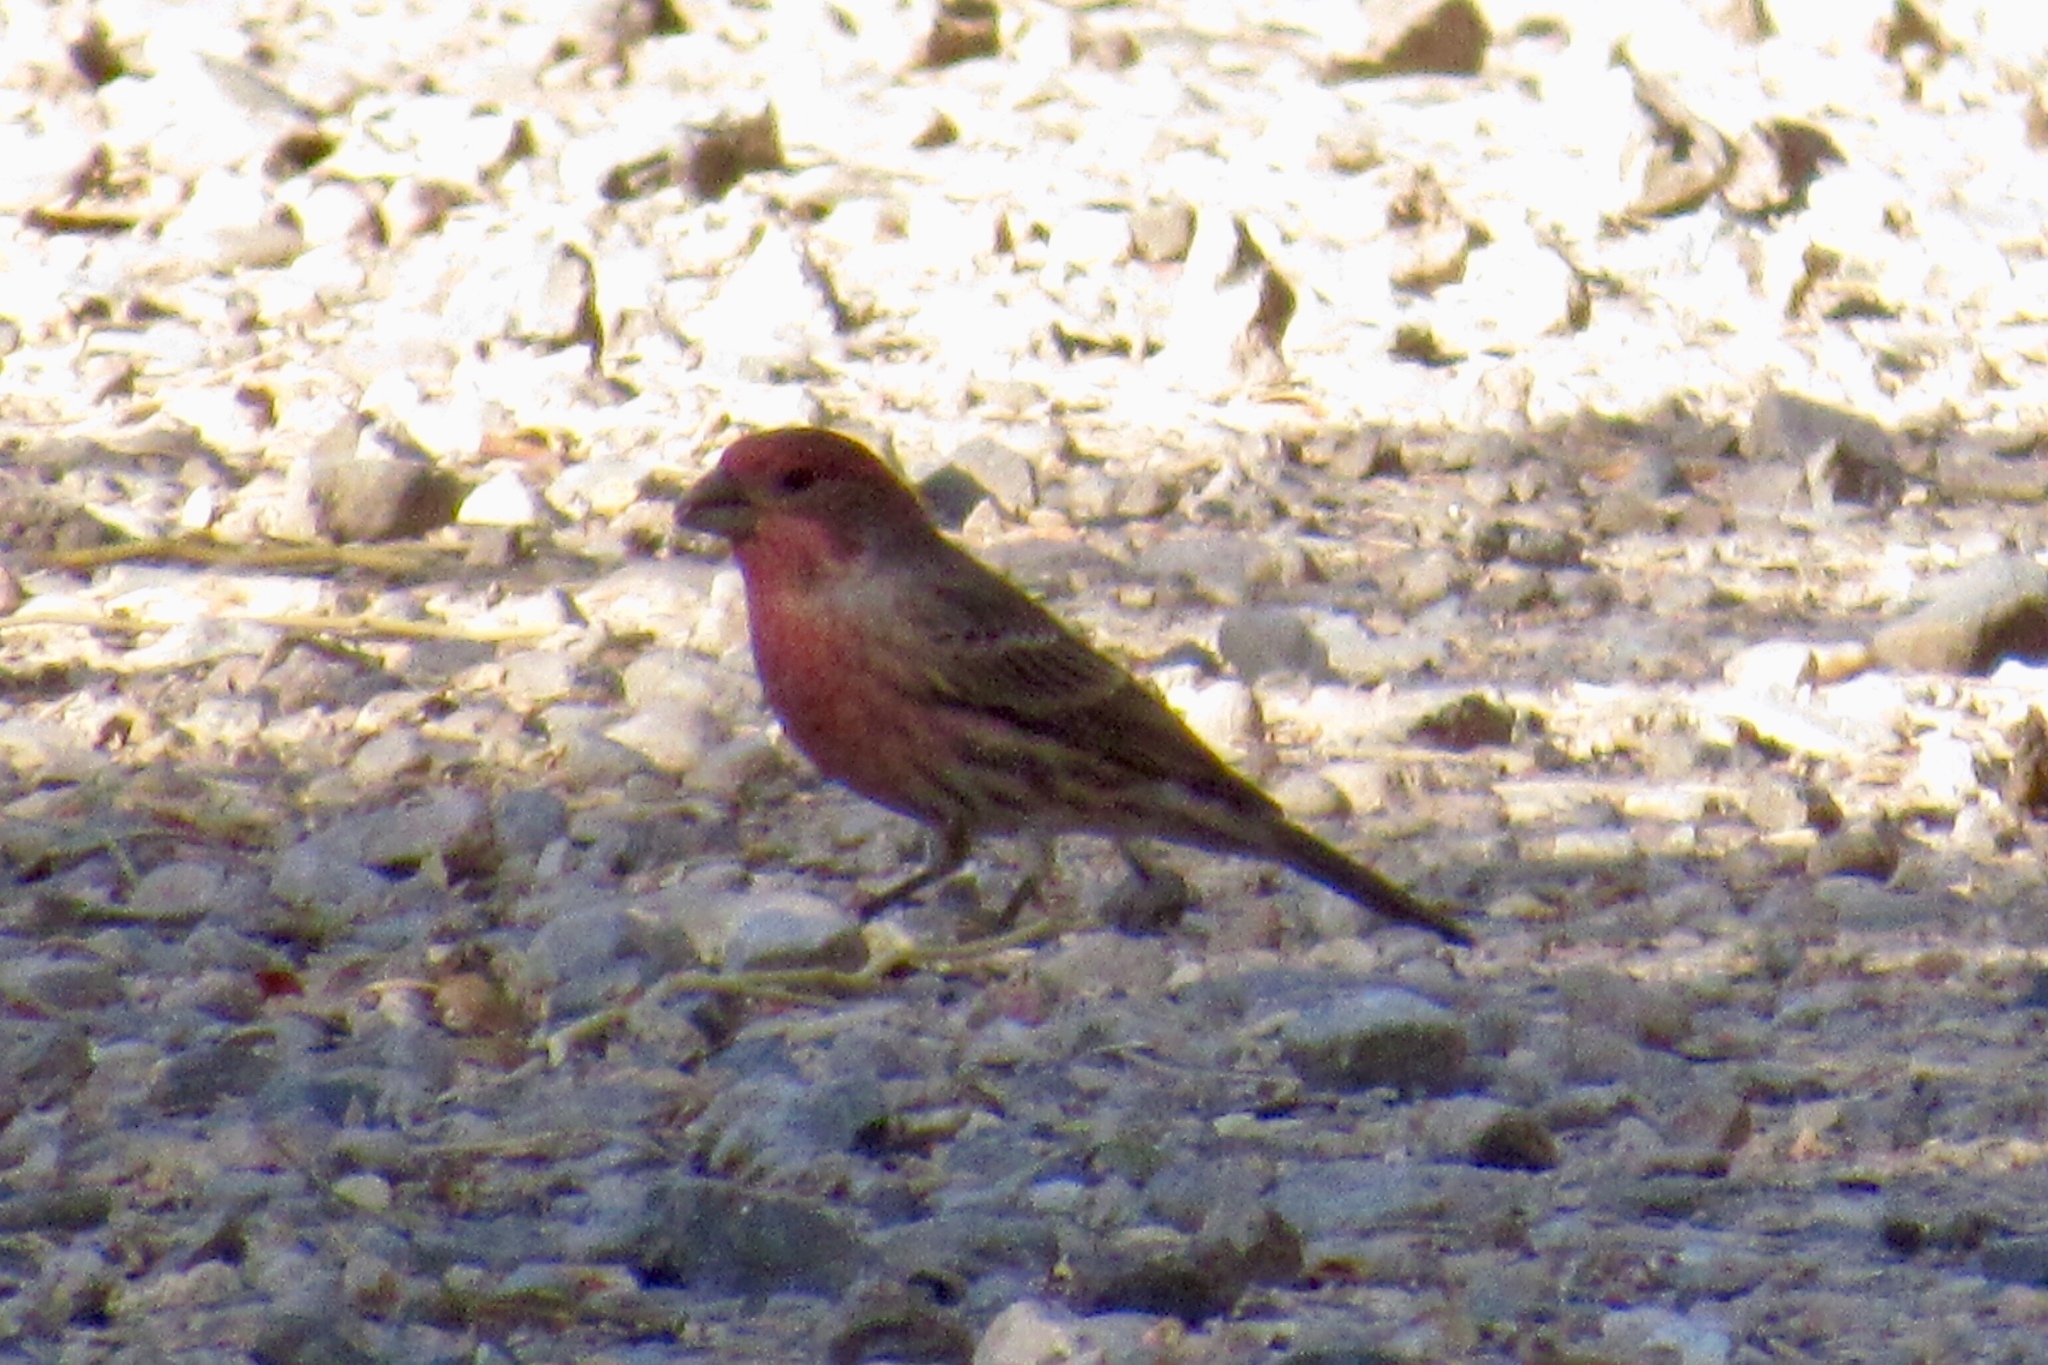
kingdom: Animalia
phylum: Chordata
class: Aves
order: Passeriformes
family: Fringillidae
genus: Haemorhous
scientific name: Haemorhous mexicanus
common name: House finch
